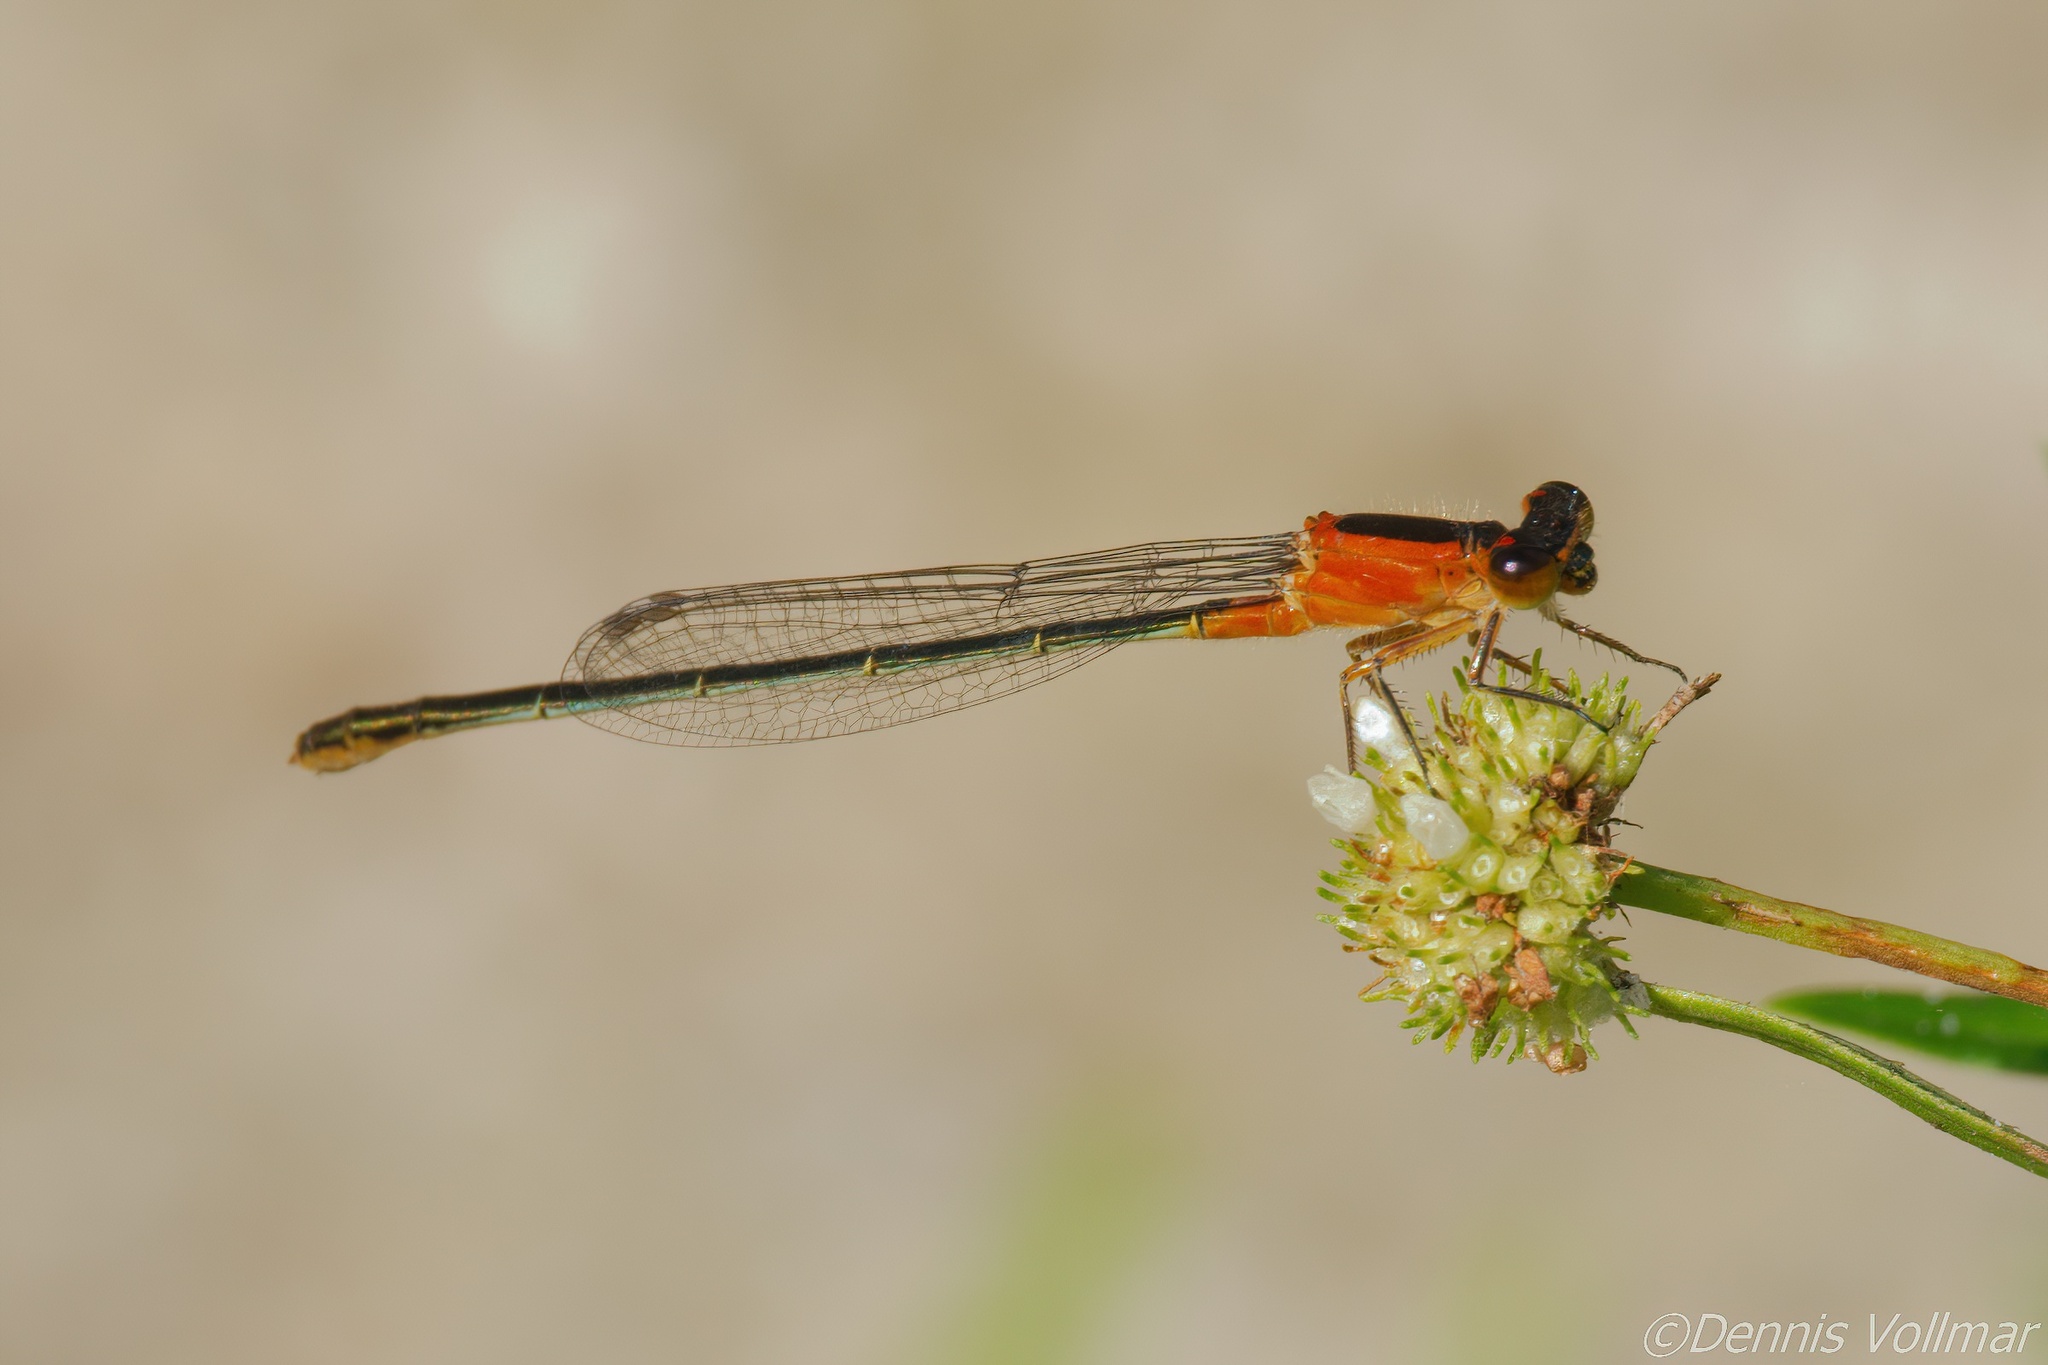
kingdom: Animalia
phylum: Arthropoda
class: Insecta
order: Odonata
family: Coenagrionidae
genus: Ischnura
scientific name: Ischnura ramburii
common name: Rambur's forktail
